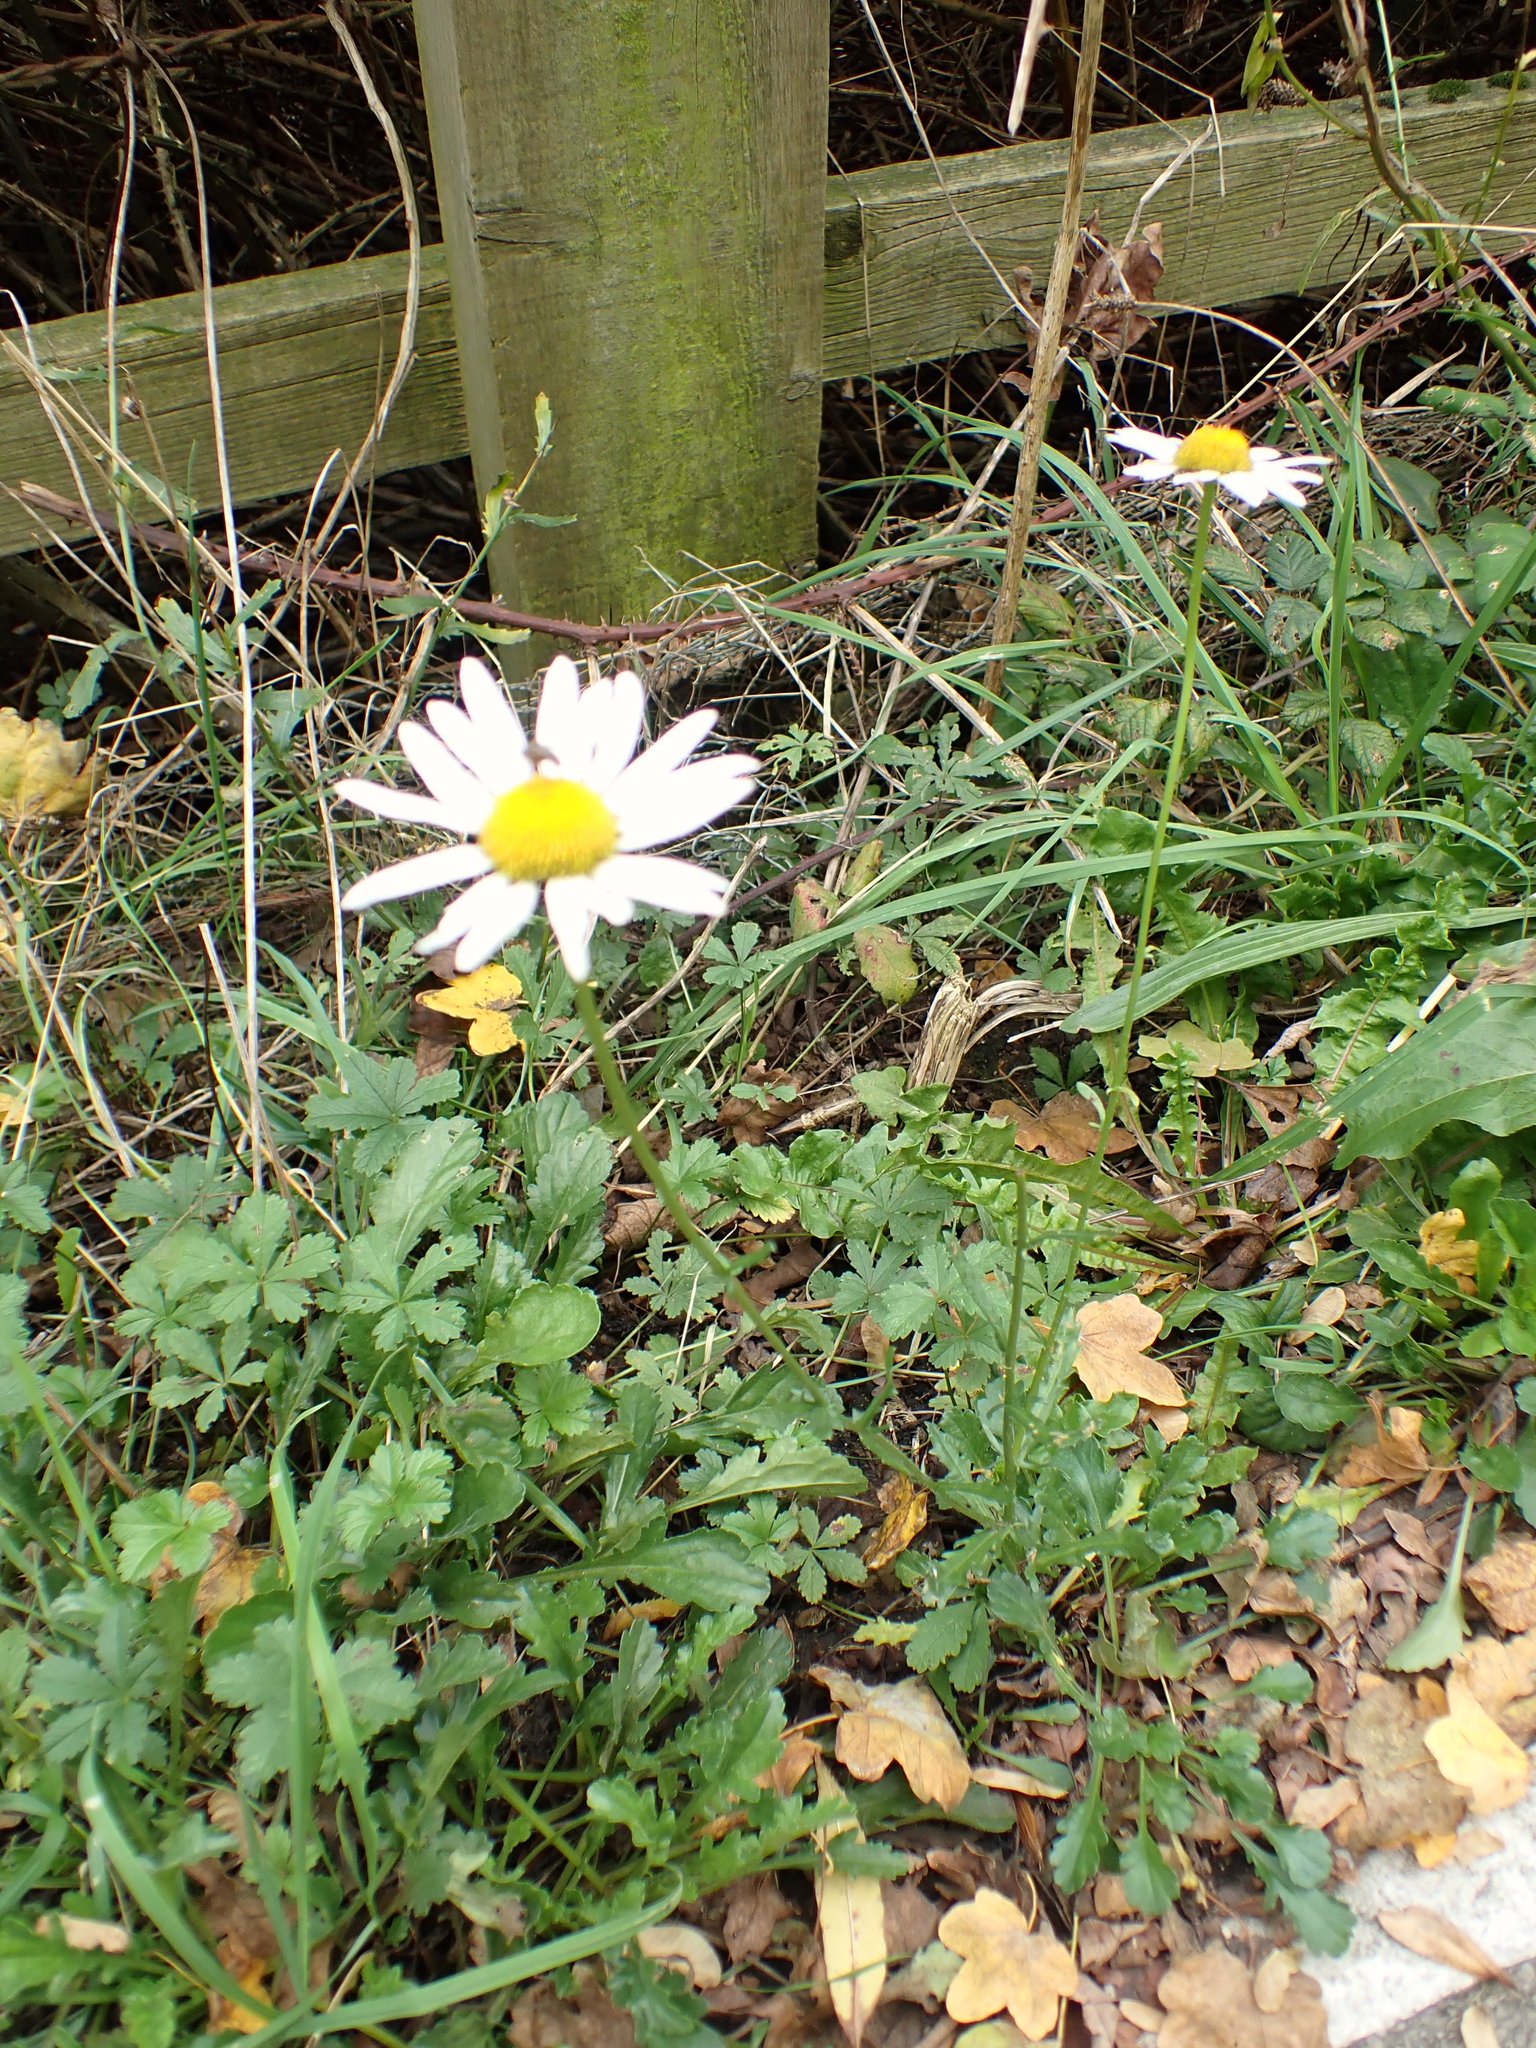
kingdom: Plantae
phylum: Tracheophyta
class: Magnoliopsida
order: Asterales
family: Asteraceae
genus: Leucanthemum
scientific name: Leucanthemum vulgare
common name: Oxeye daisy
